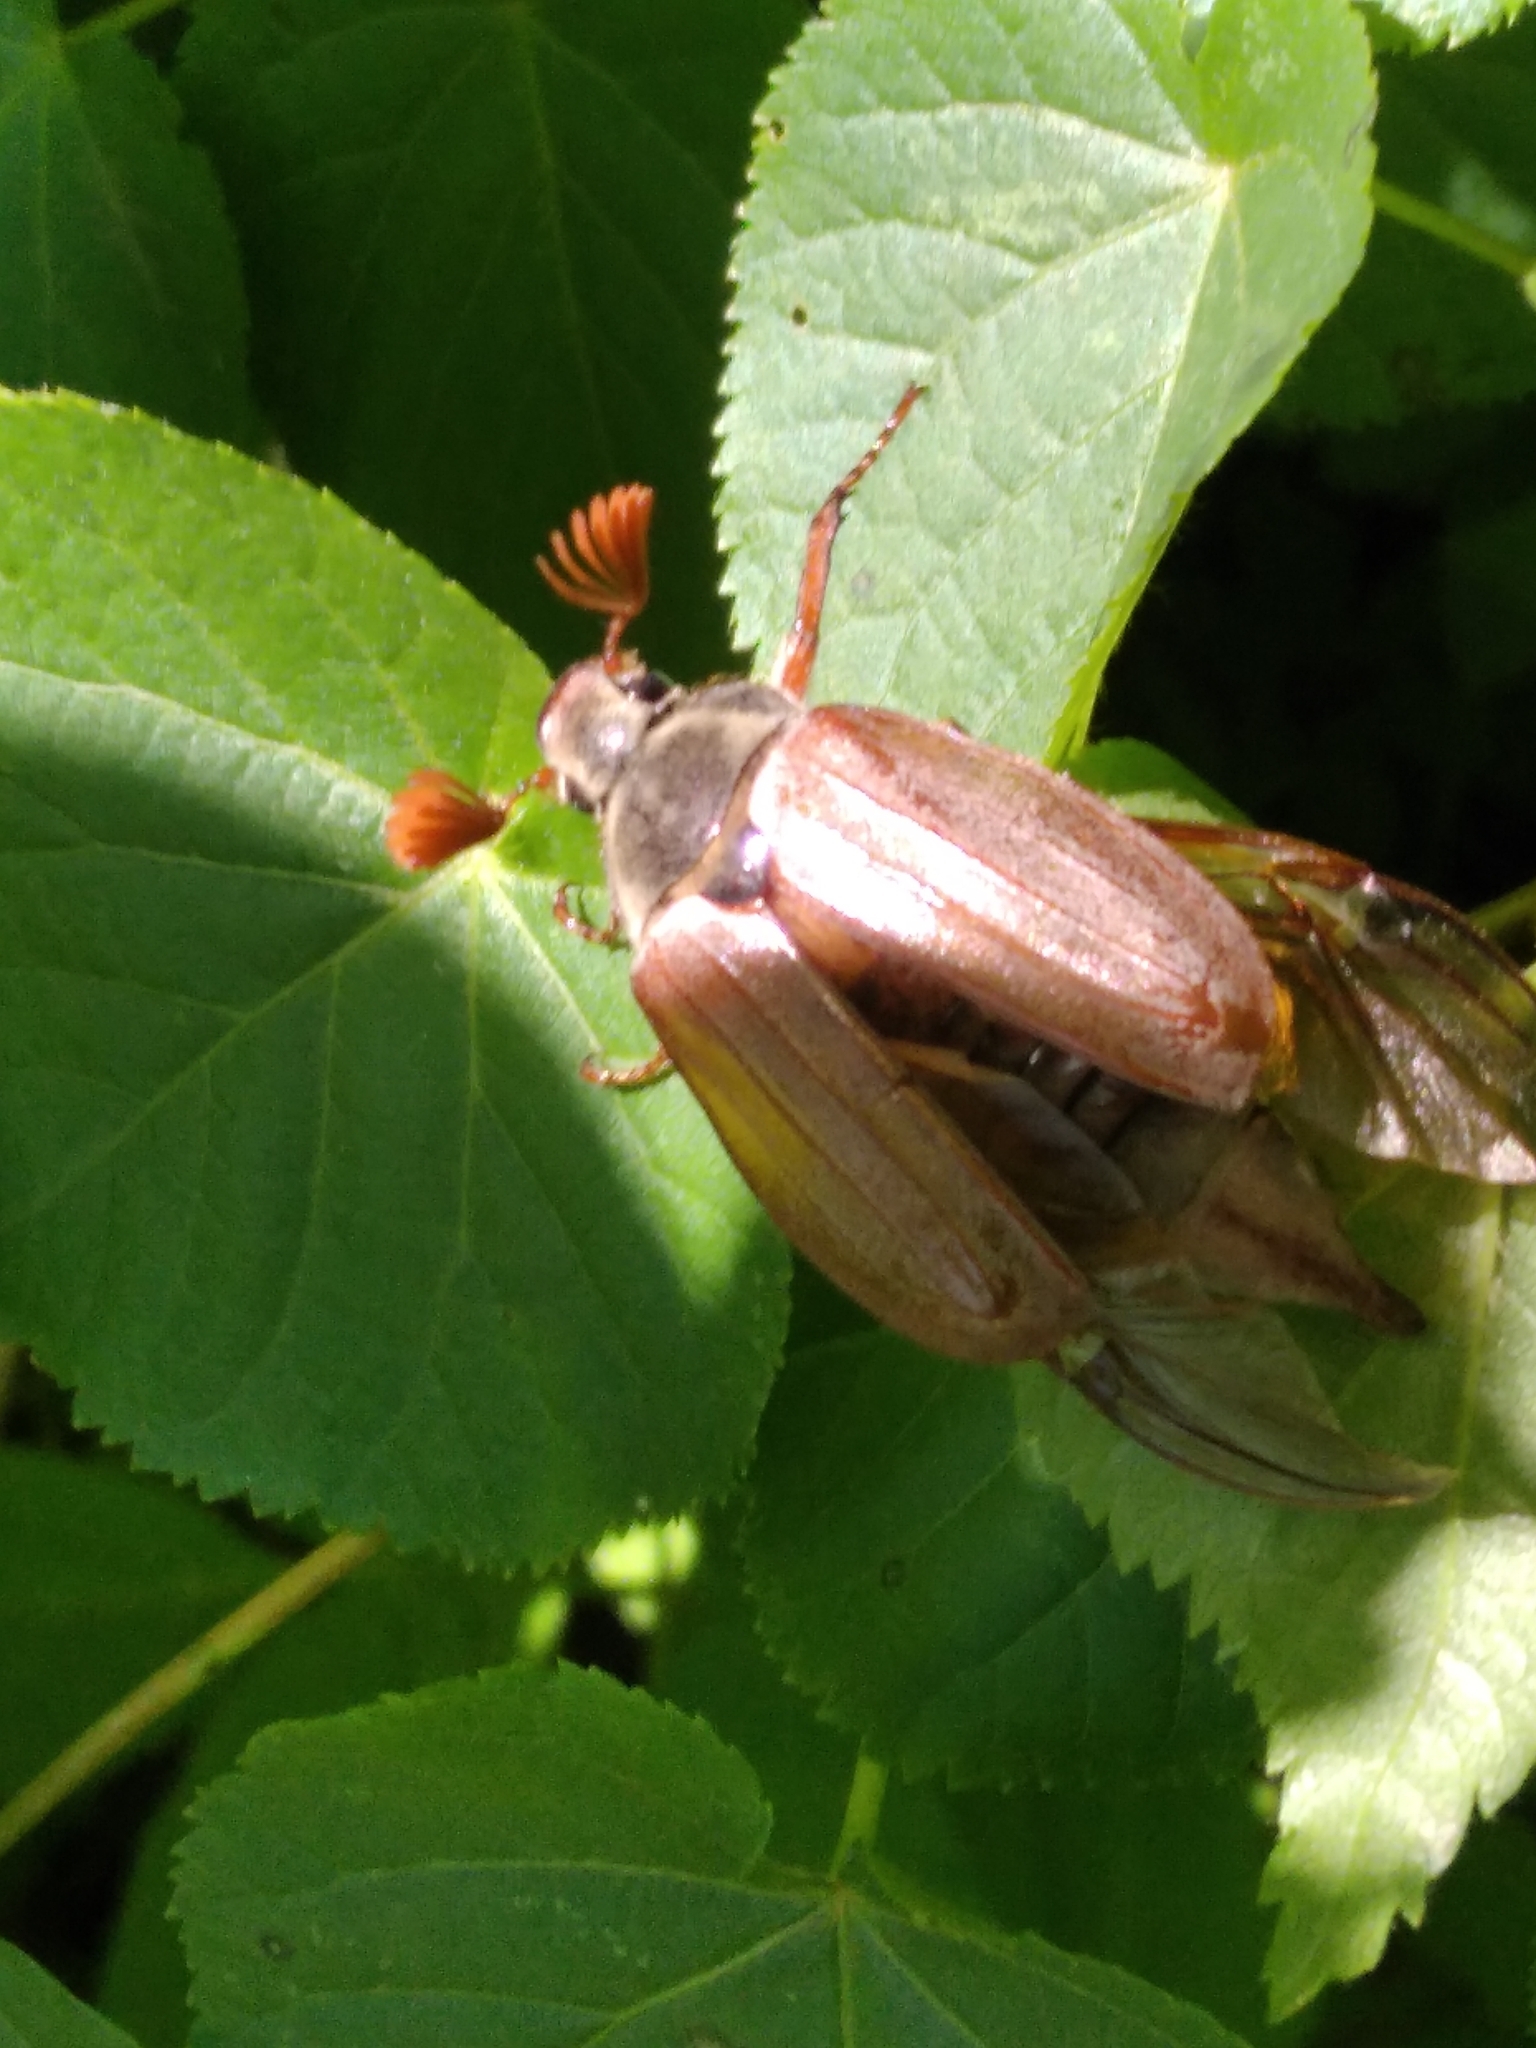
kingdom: Animalia
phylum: Arthropoda
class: Insecta
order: Coleoptera
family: Scarabaeidae
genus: Melolontha
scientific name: Melolontha melolontha
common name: Cockchafer maybeetle
